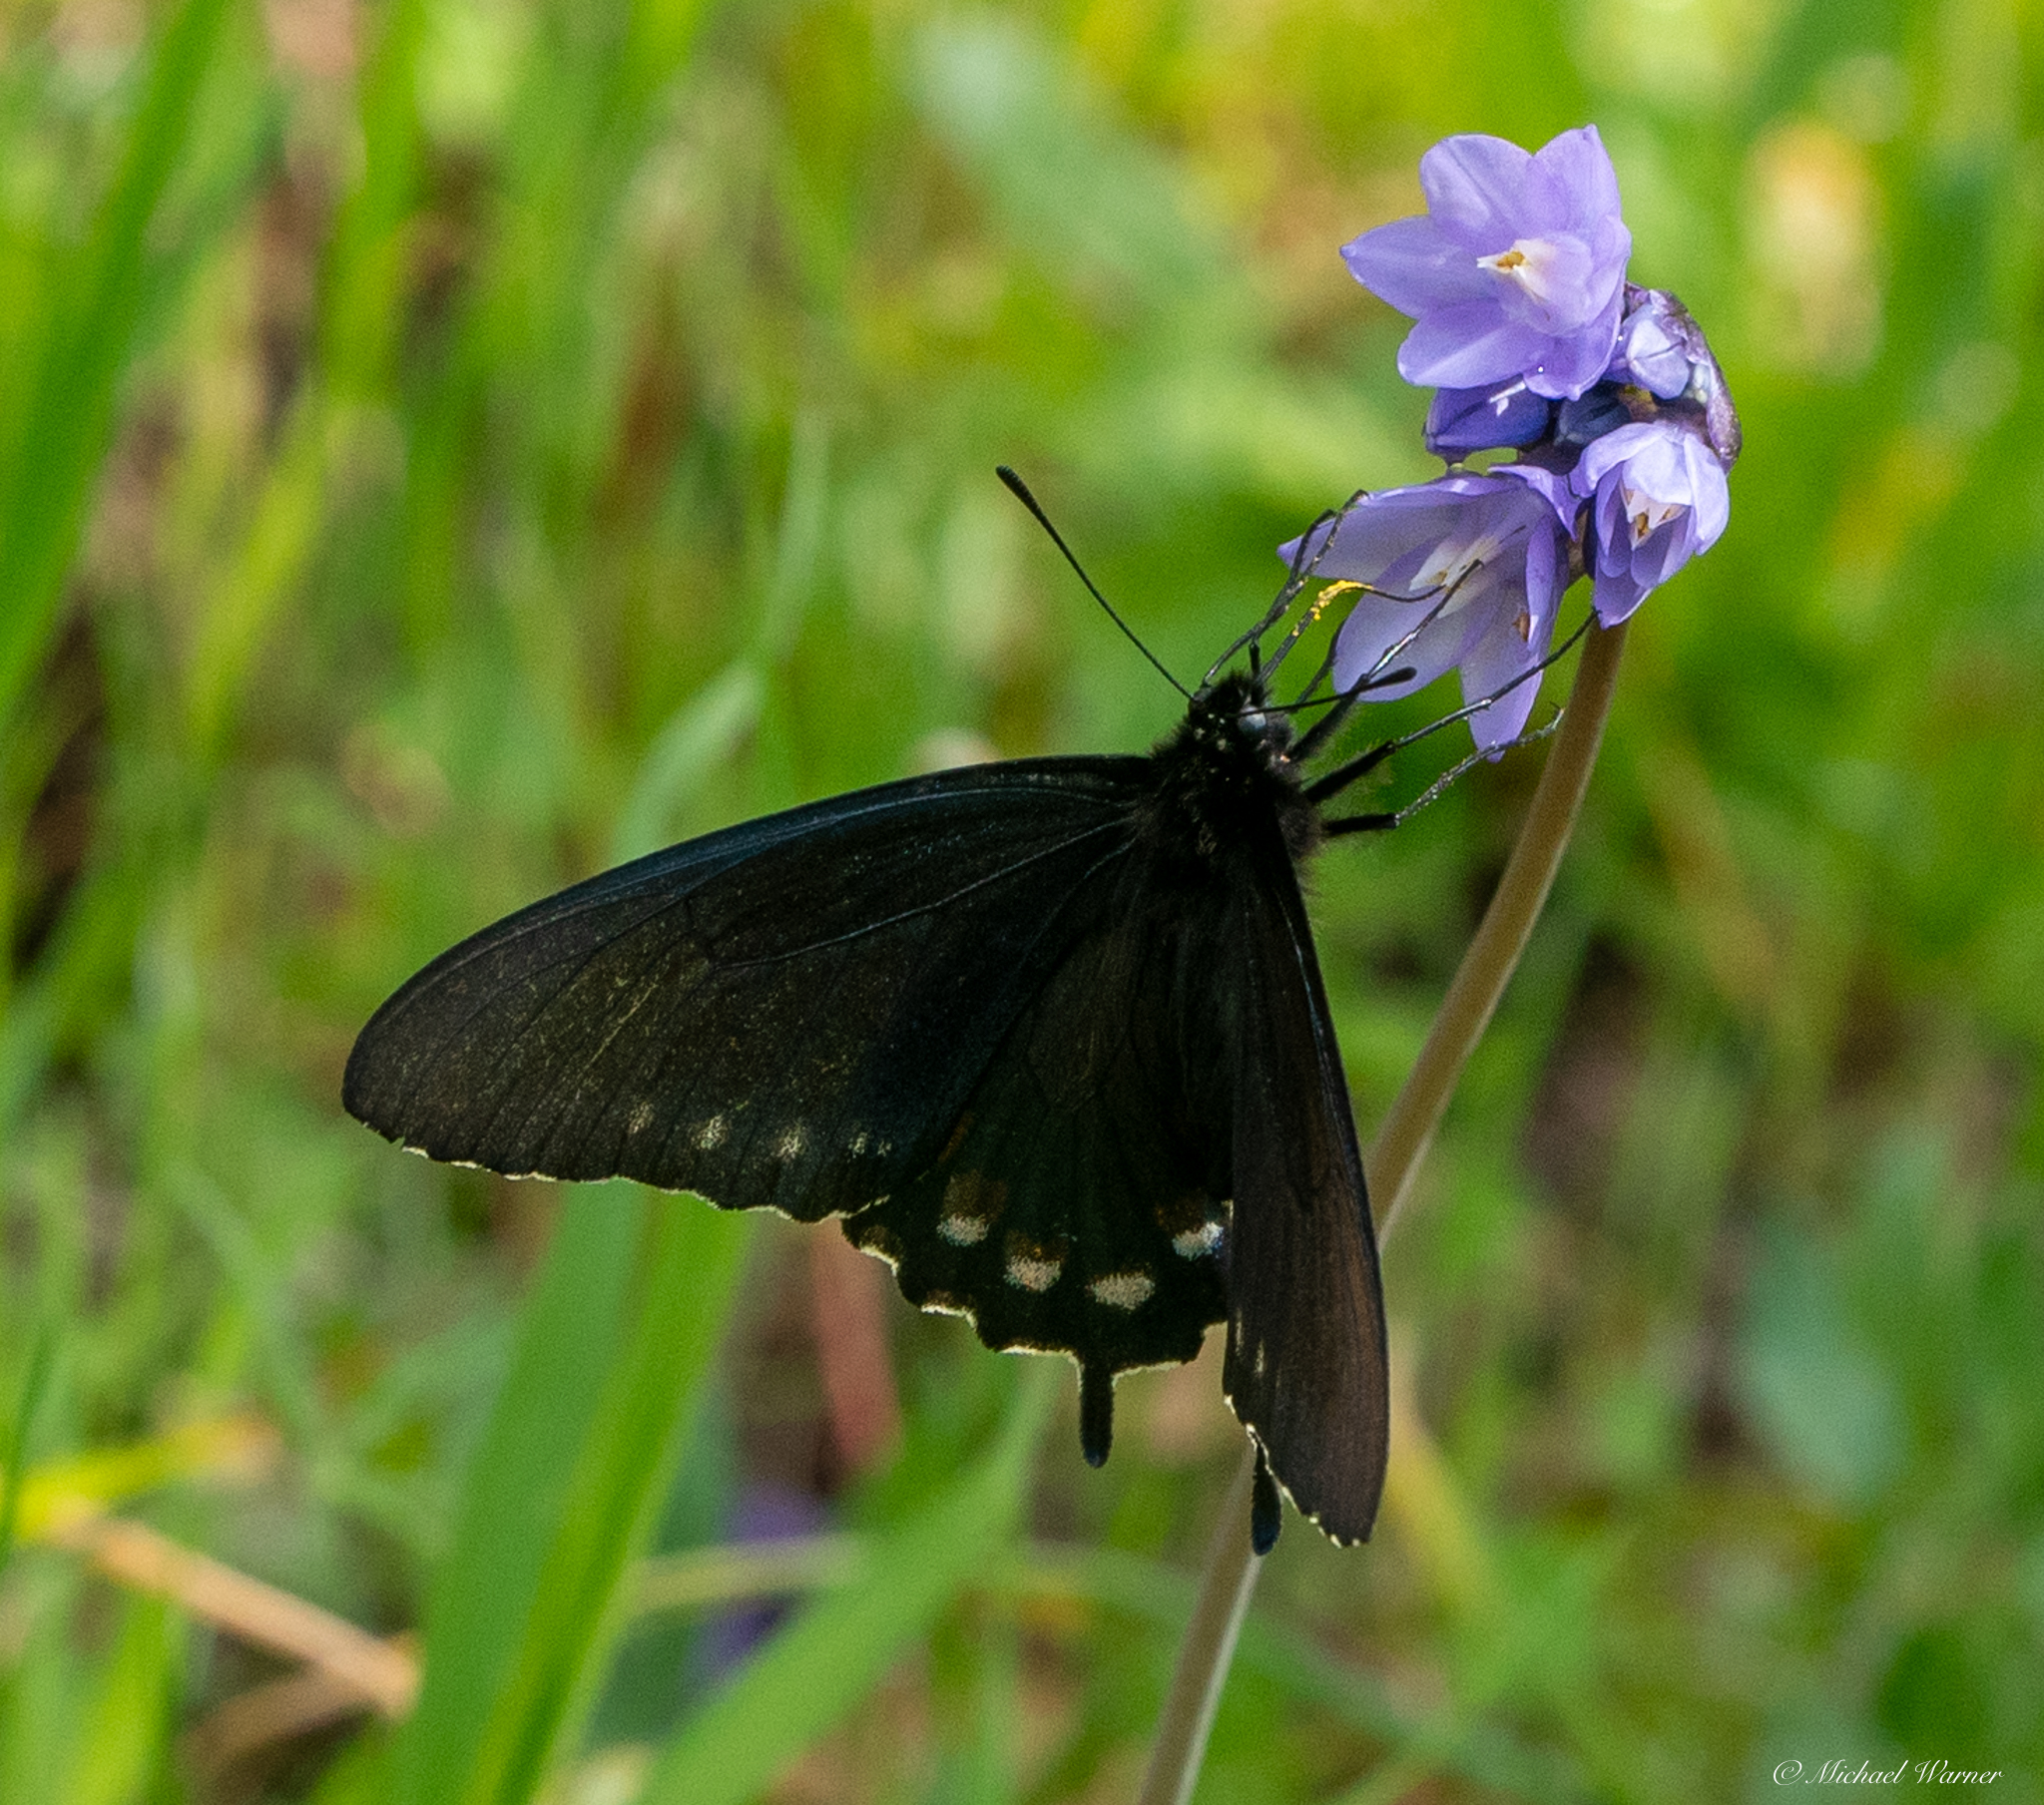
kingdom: Animalia
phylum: Arthropoda
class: Insecta
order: Lepidoptera
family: Papilionidae
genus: Battus
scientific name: Battus philenor
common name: Pipevine swallowtail
